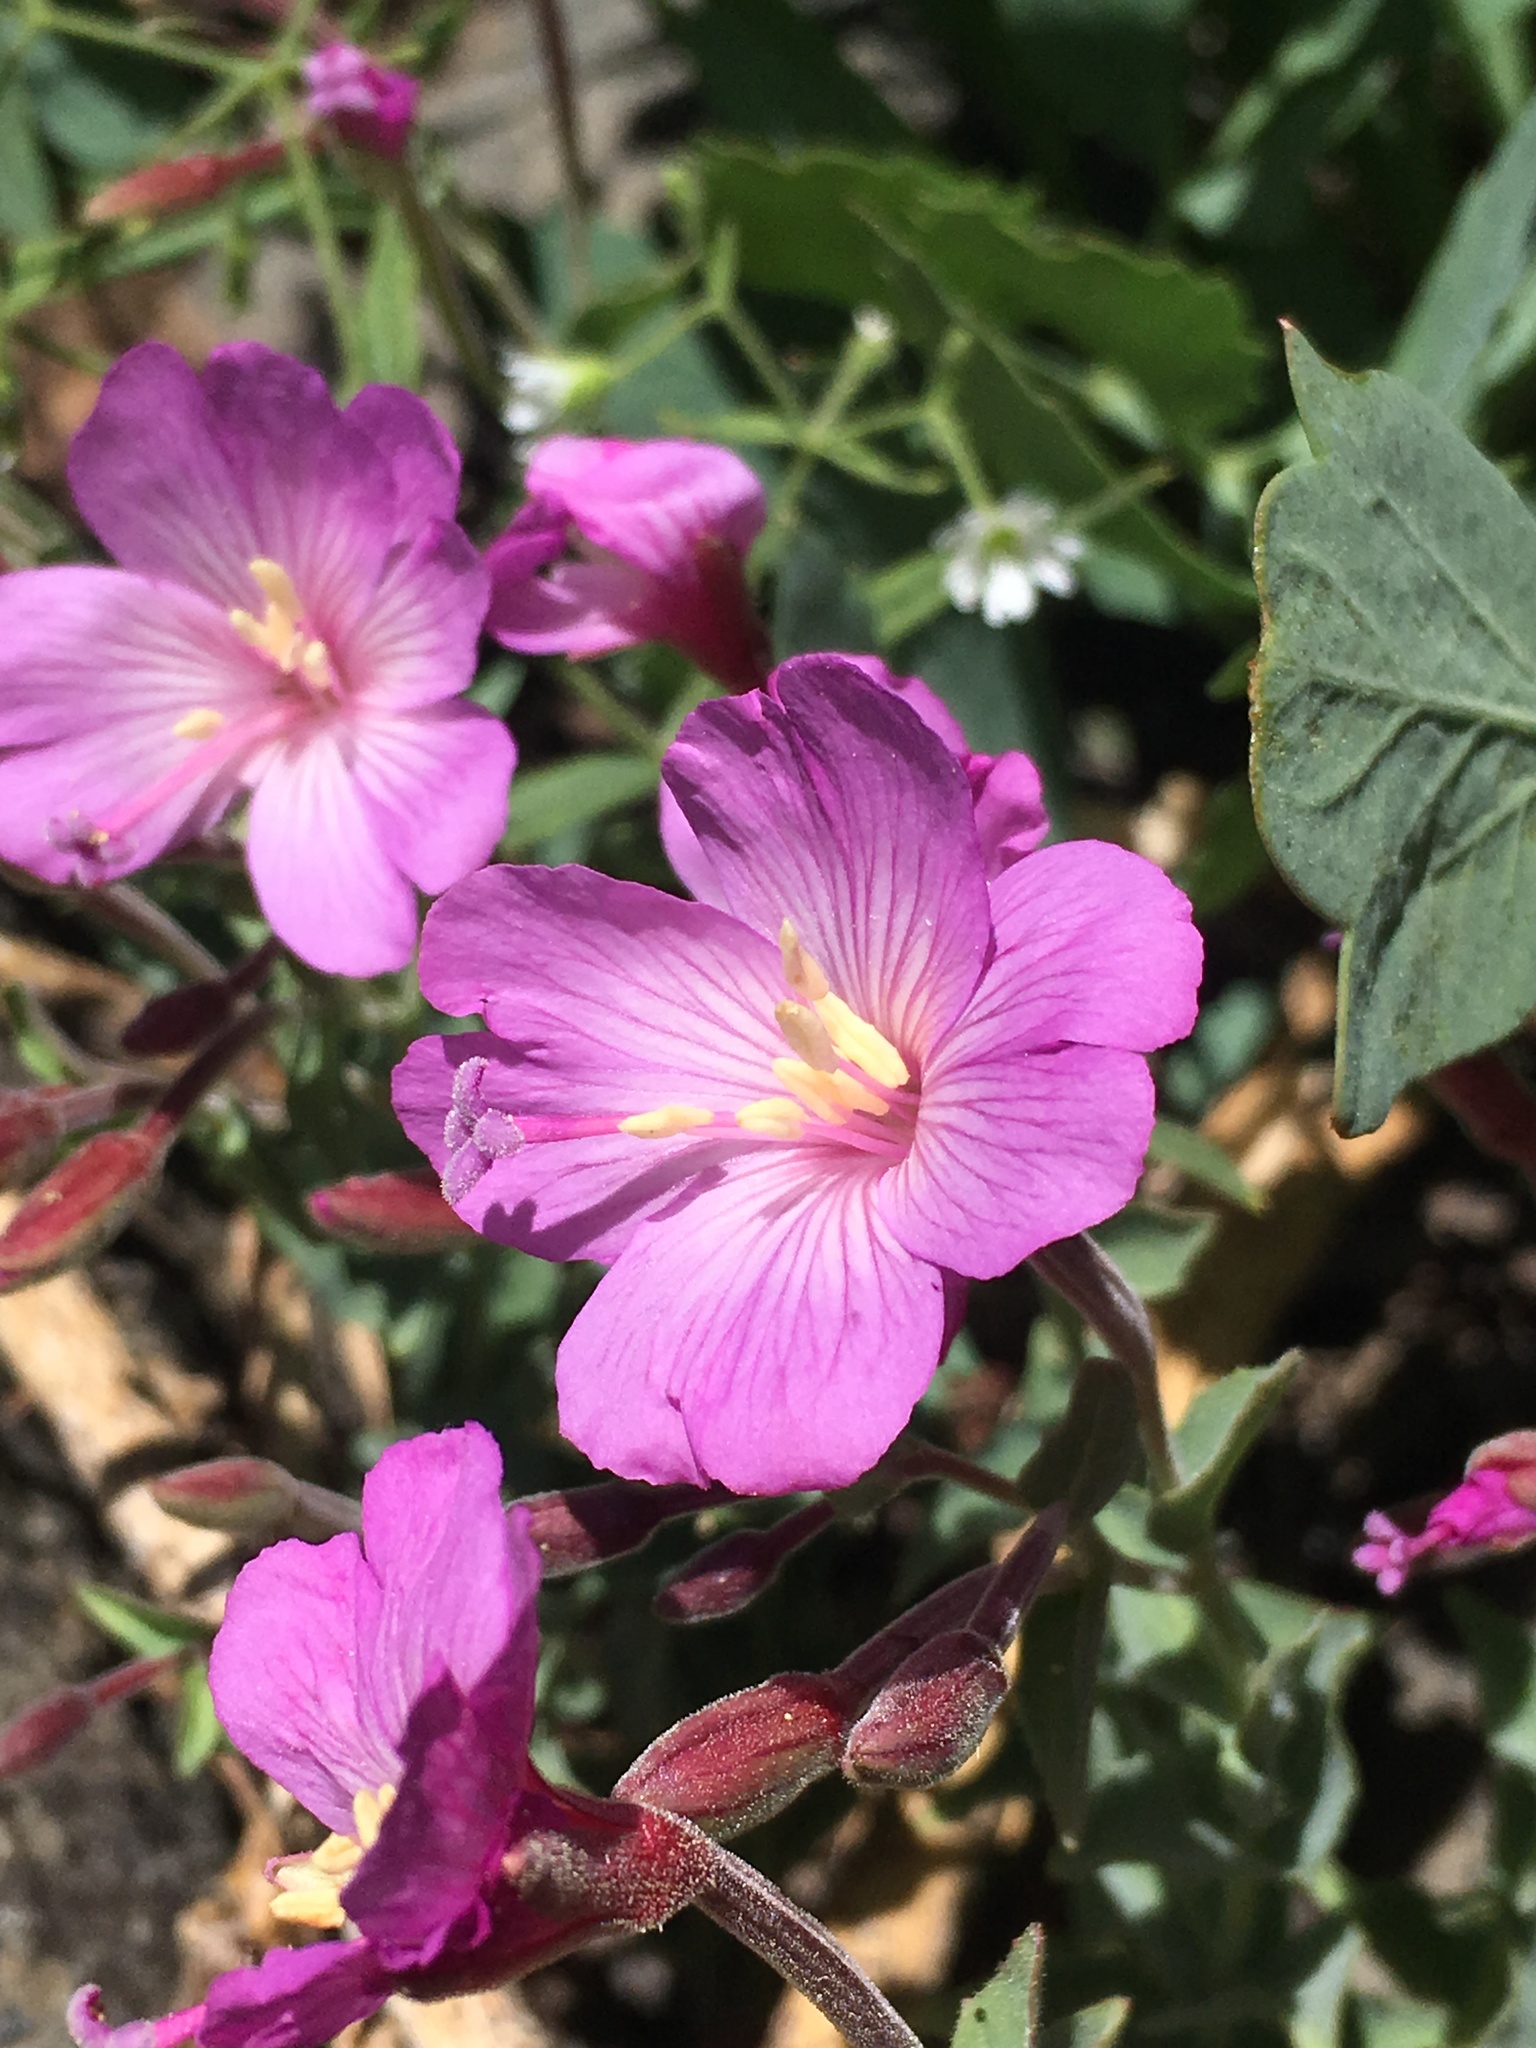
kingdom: Plantae
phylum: Tracheophyta
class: Magnoliopsida
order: Myrtales
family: Onagraceae
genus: Epilobium
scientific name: Epilobium siskiyouense
